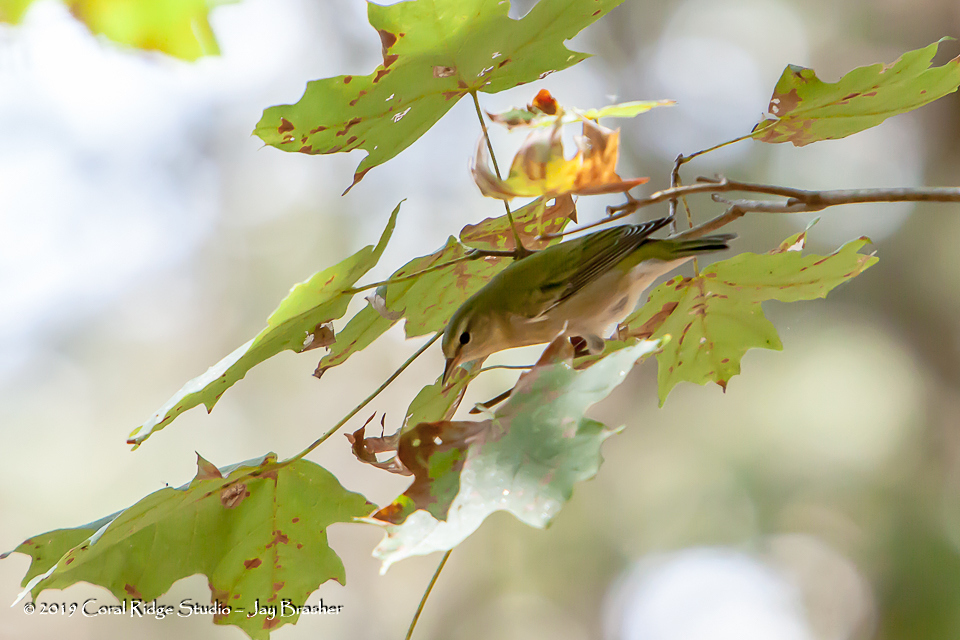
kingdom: Animalia
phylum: Chordata
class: Aves
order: Passeriformes
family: Parulidae
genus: Leiothlypis
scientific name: Leiothlypis peregrina
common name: Tennessee warbler
